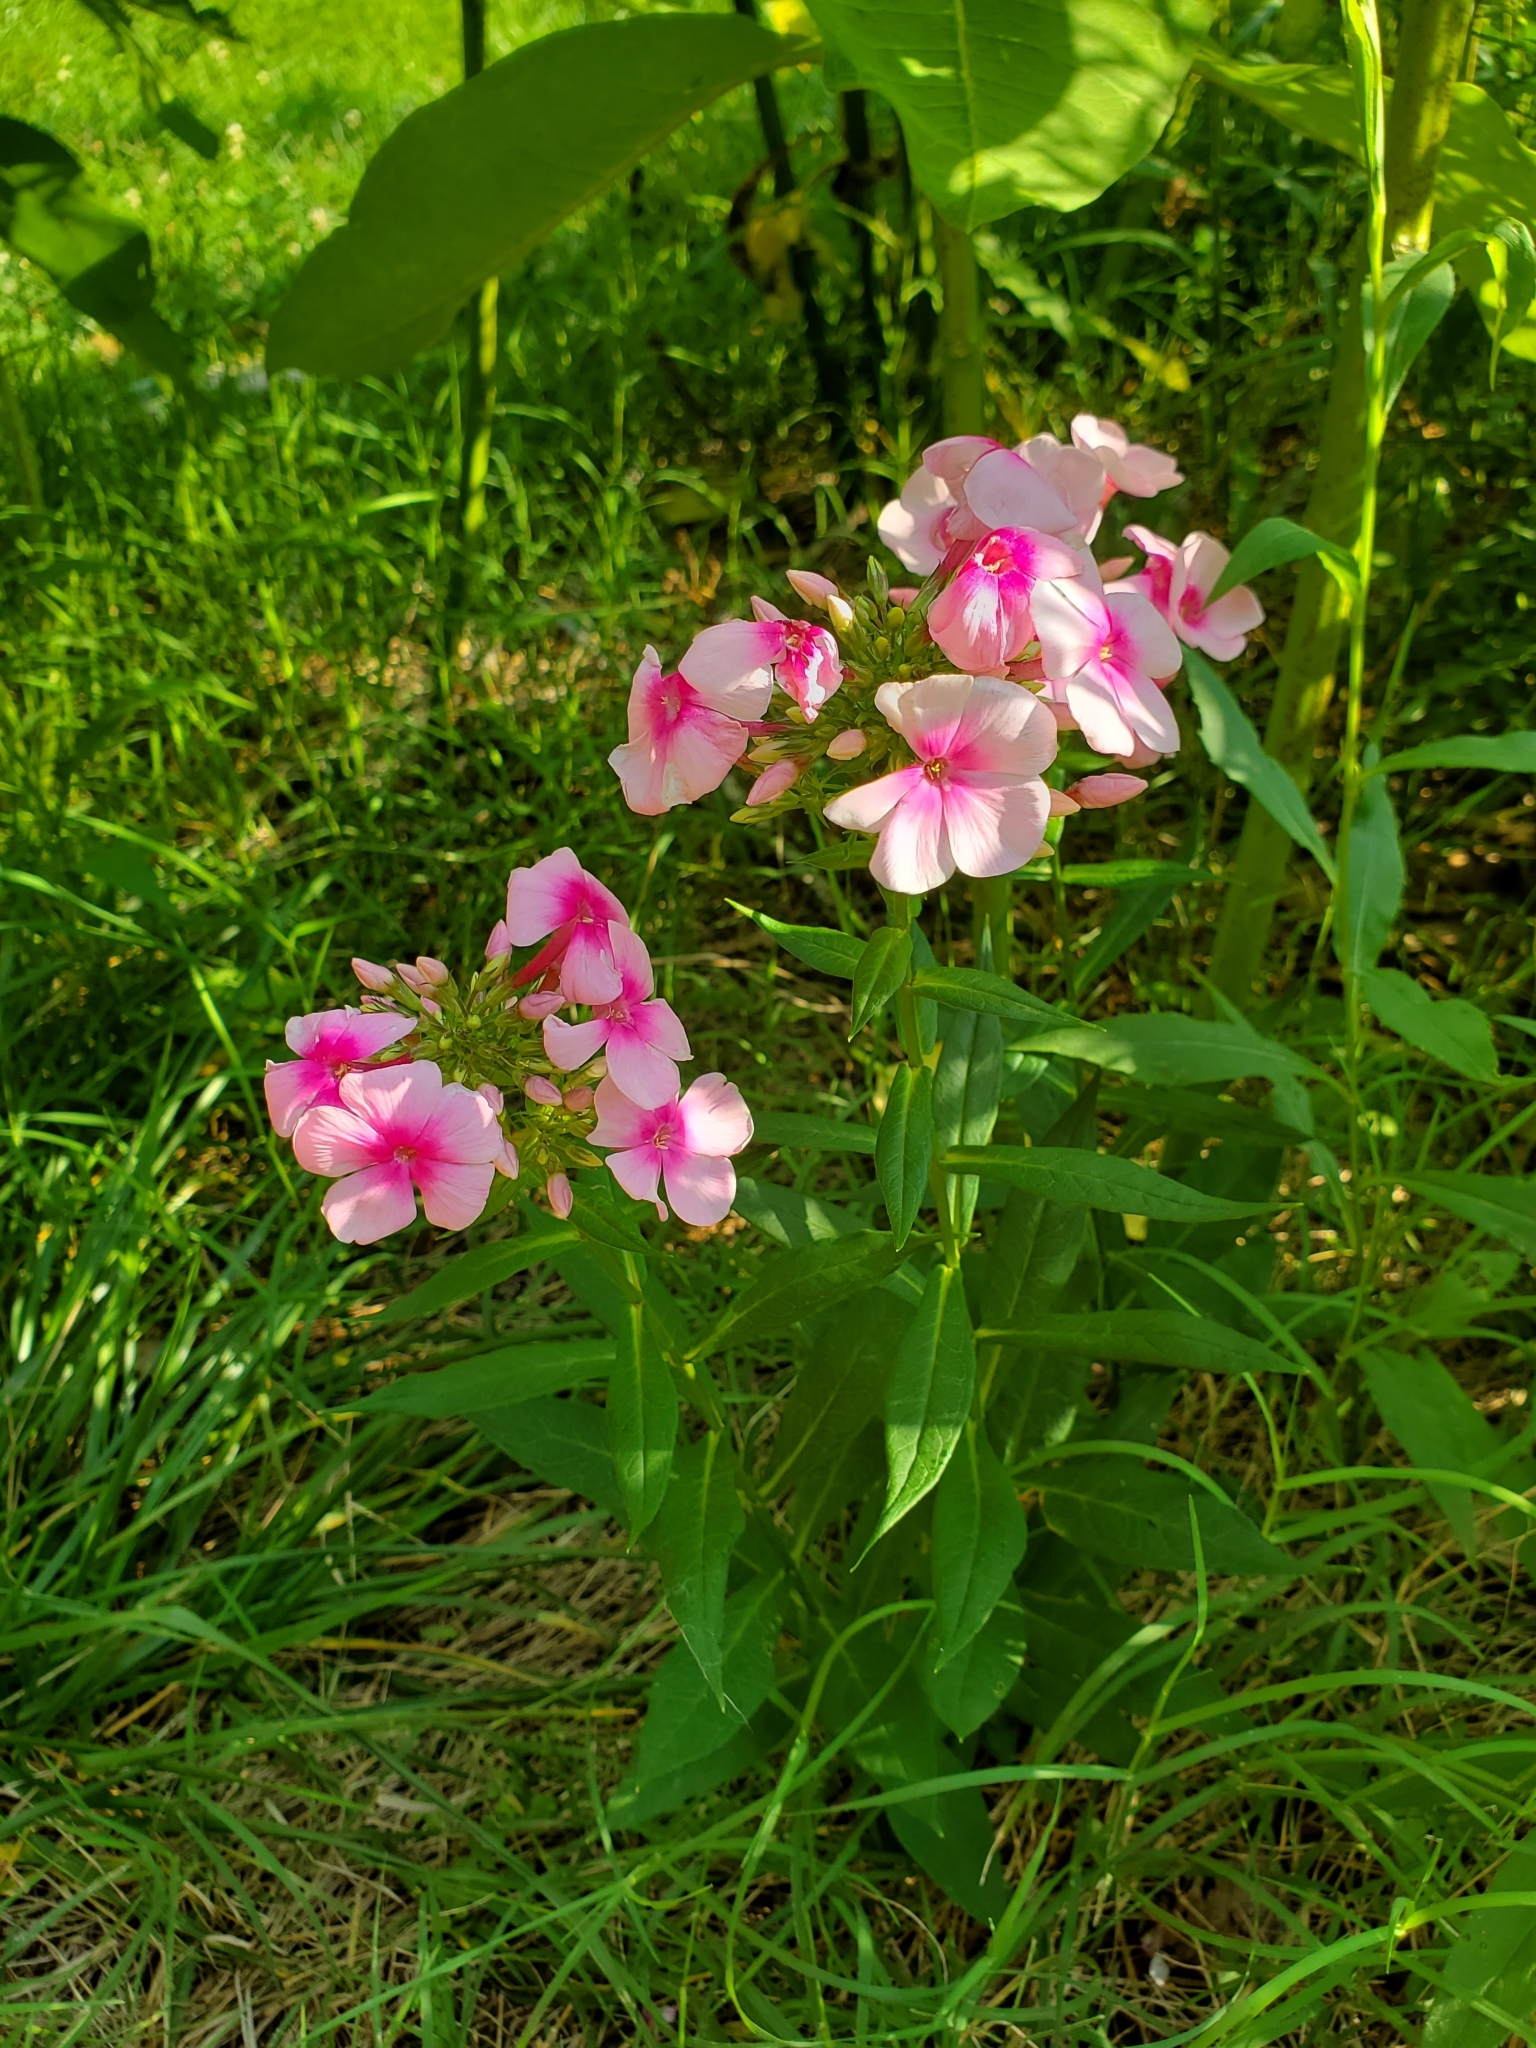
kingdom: Plantae
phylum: Tracheophyta
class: Magnoliopsida
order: Ericales
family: Polemoniaceae
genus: Phlox
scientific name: Phlox paniculata
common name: Fall phlox
